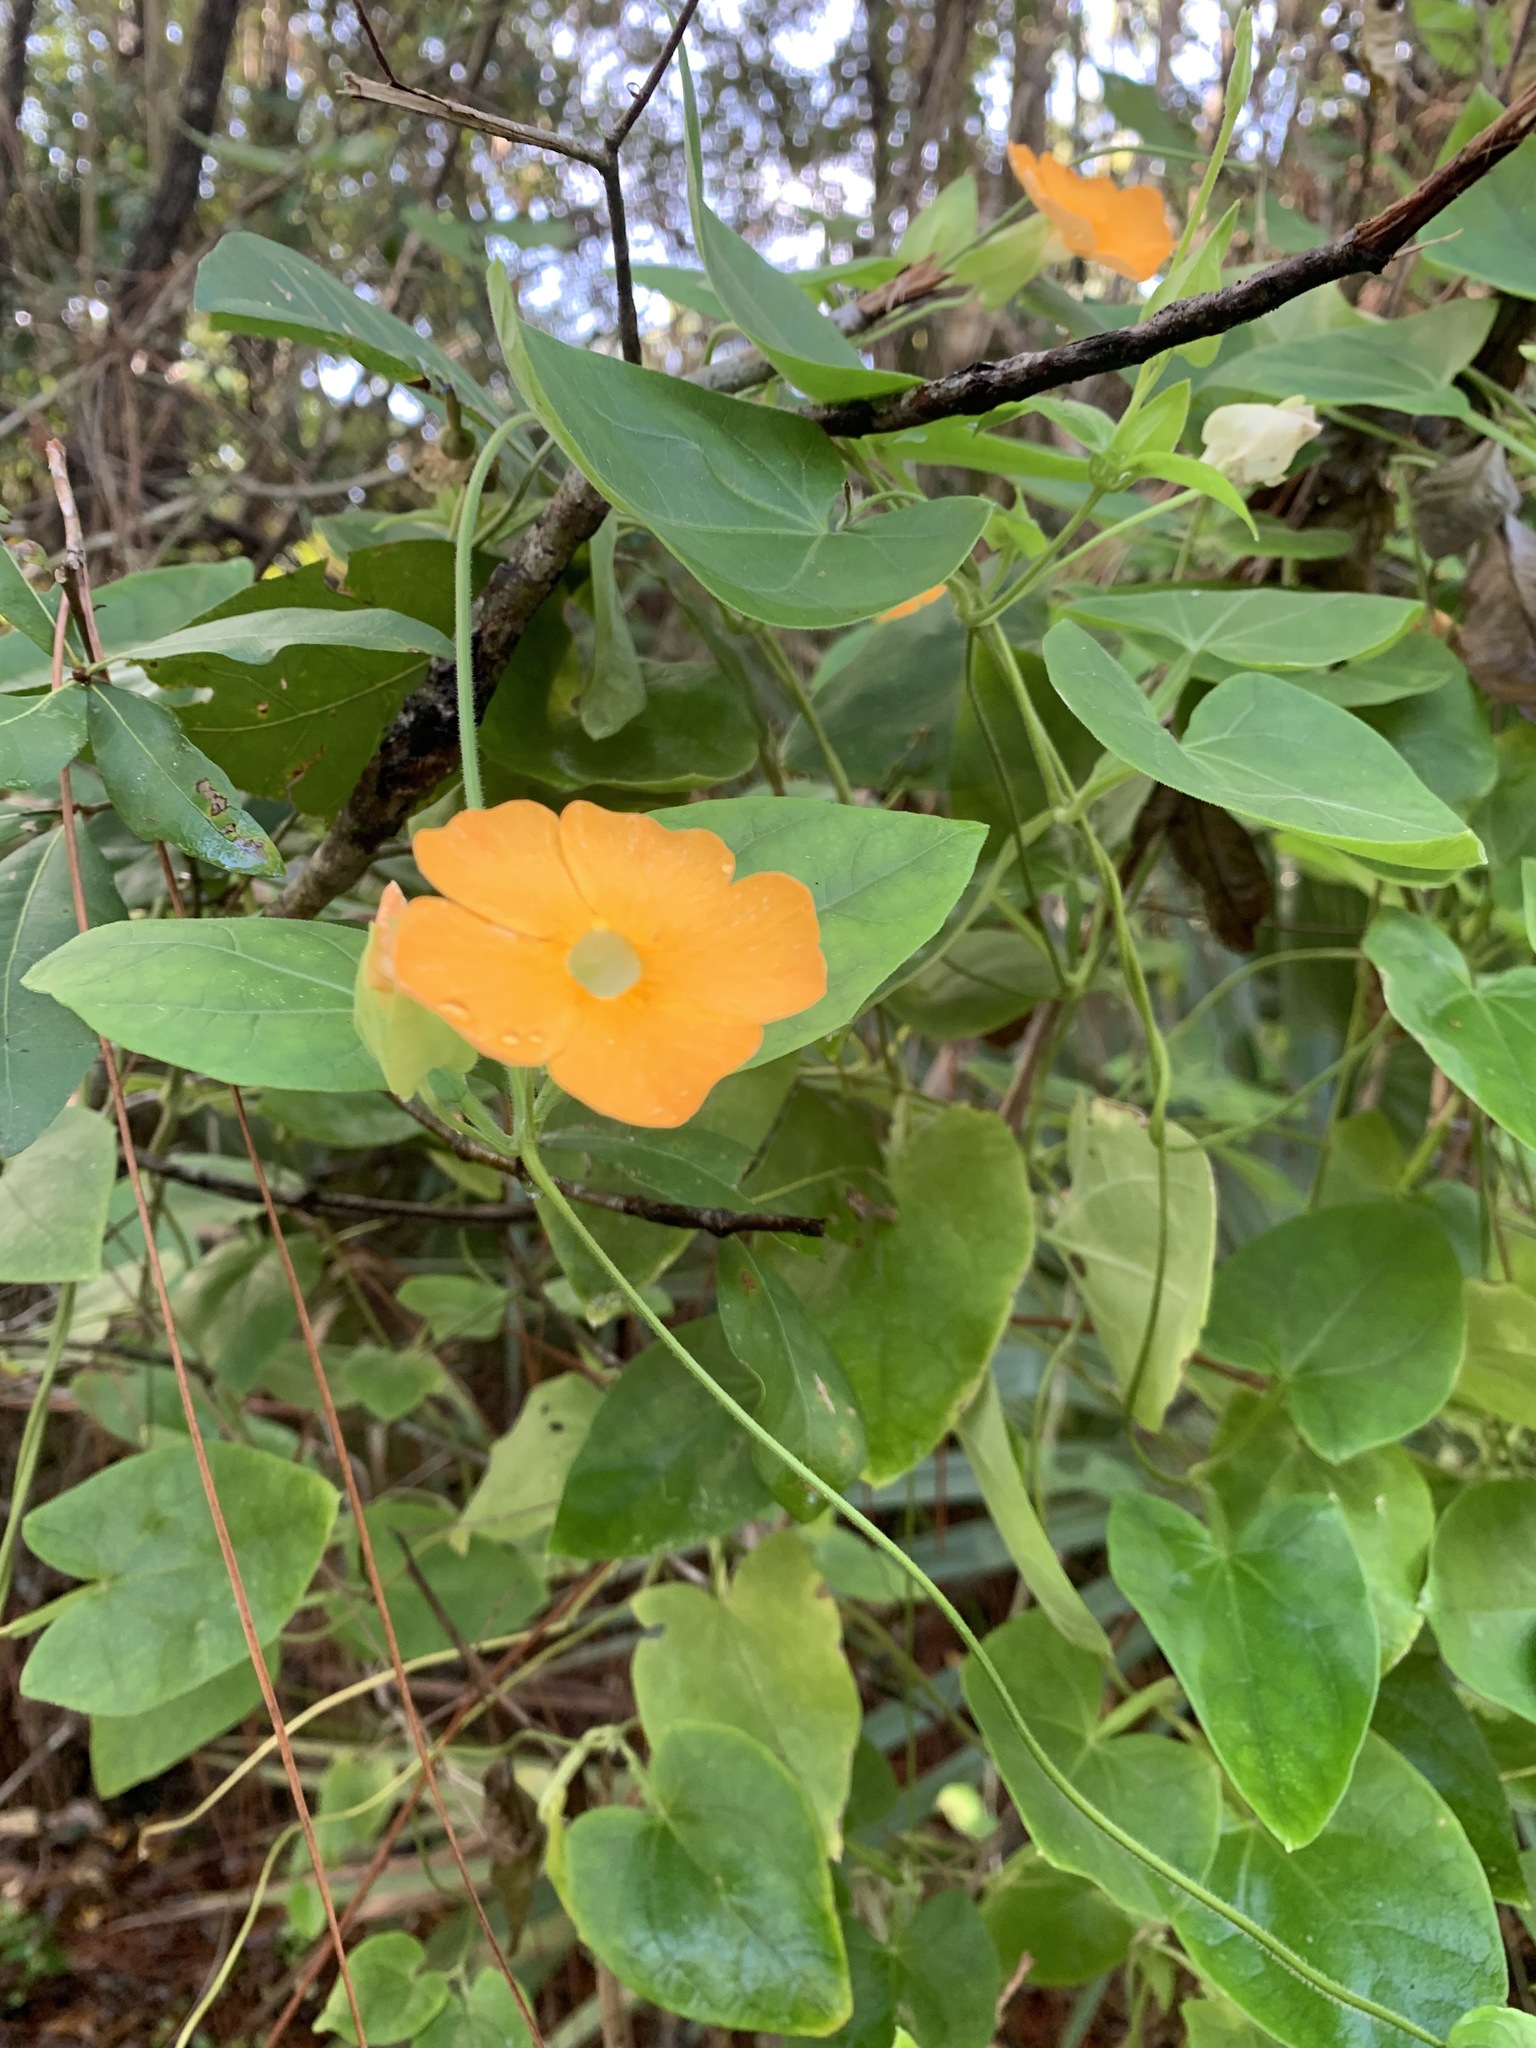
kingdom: Plantae
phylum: Tracheophyta
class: Magnoliopsida
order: Lamiales
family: Acanthaceae
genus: Thunbergia
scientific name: Thunbergia alata
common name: Blackeyed susan vine
